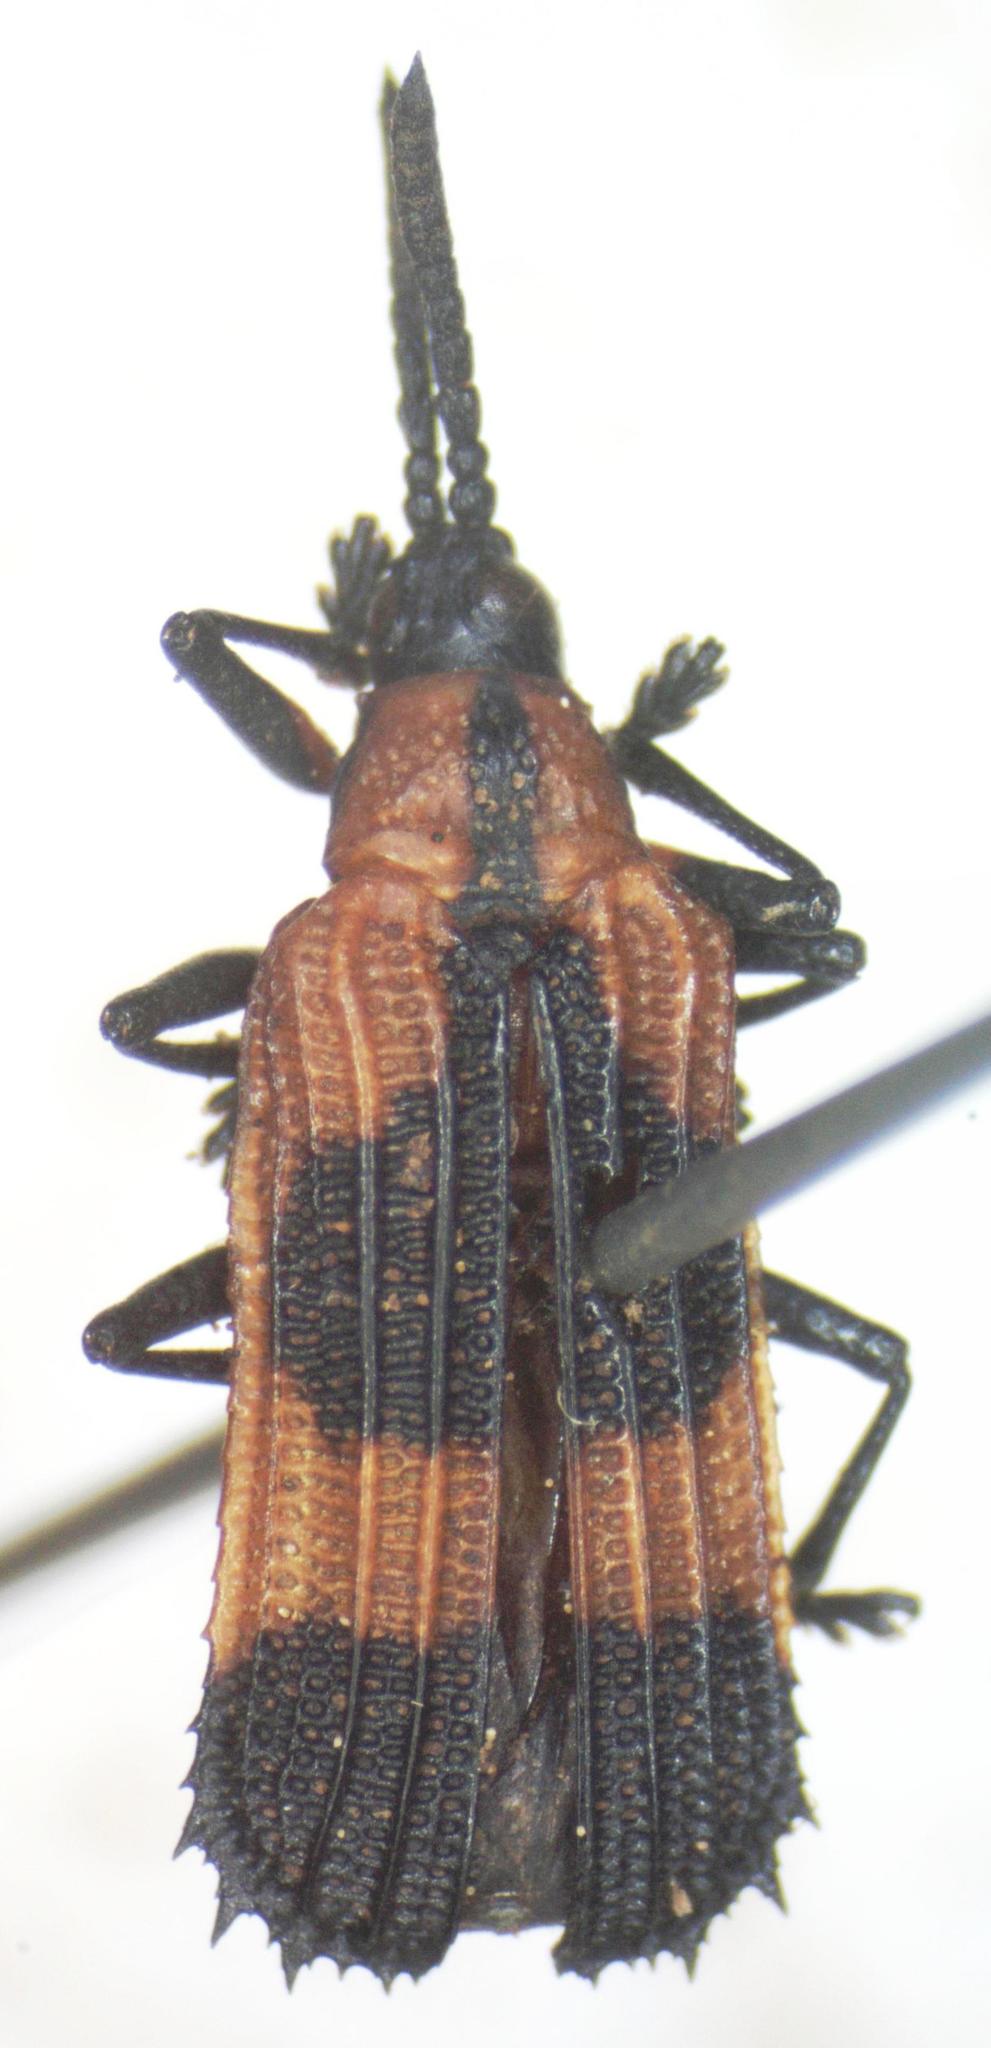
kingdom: Animalia
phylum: Arthropoda
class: Insecta
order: Coleoptera
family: Chrysomelidae
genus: Oxychalepus
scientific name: Oxychalepus balyanus
